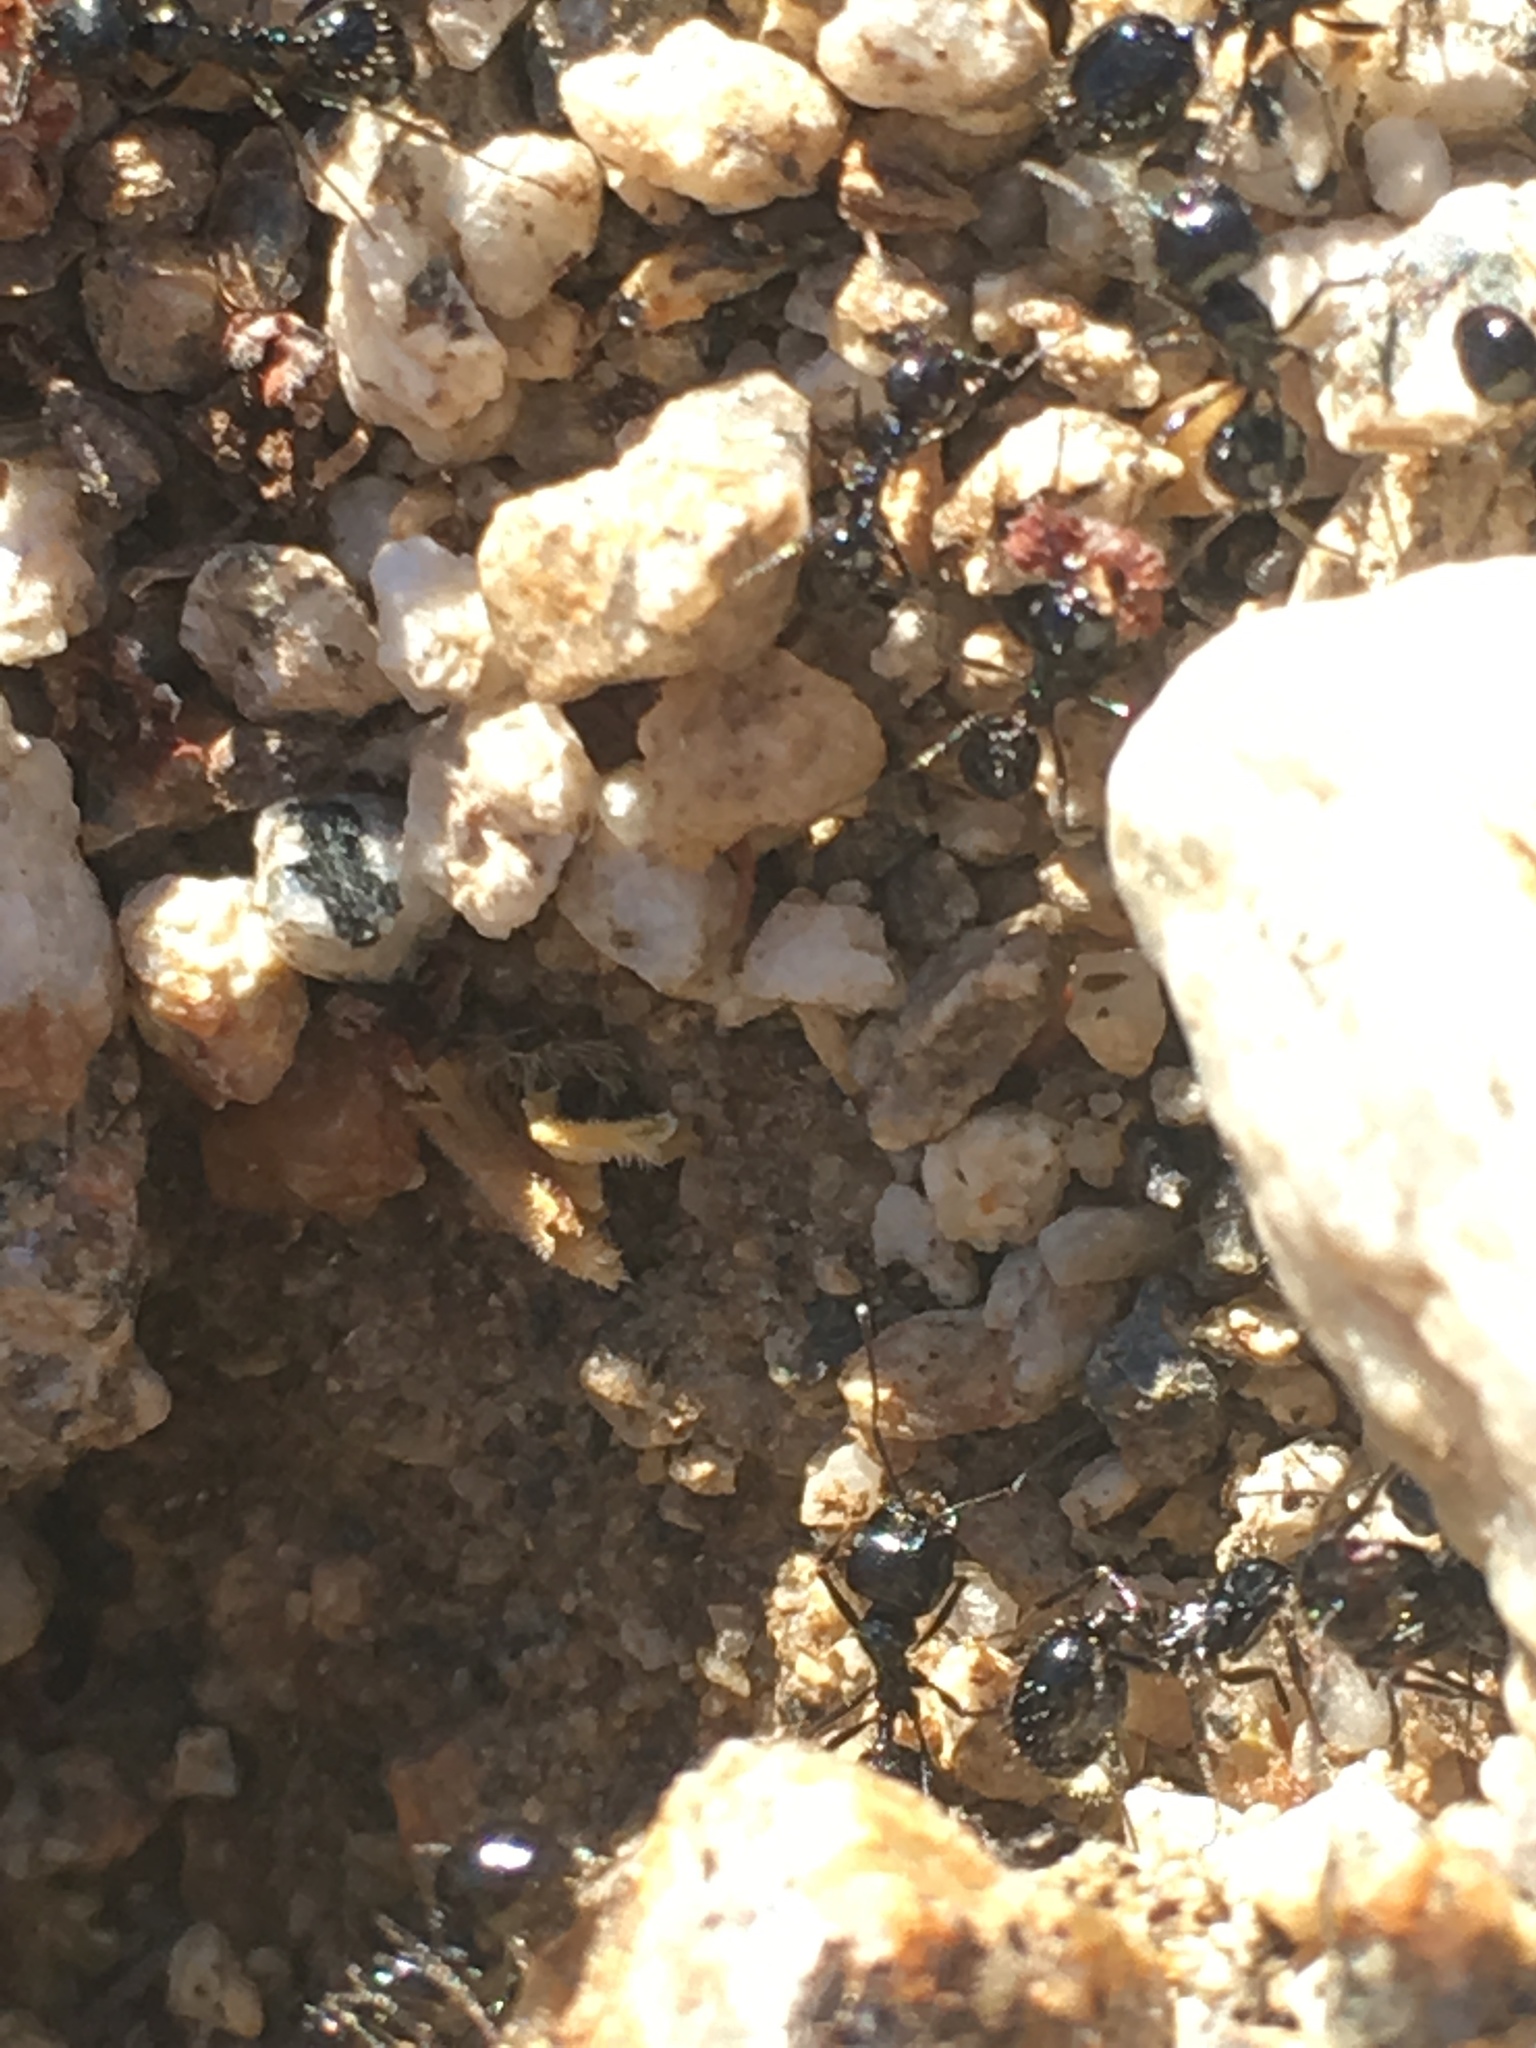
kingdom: Animalia
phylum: Arthropoda
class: Insecta
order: Hymenoptera
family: Formicidae
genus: Messor
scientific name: Messor pergandei
